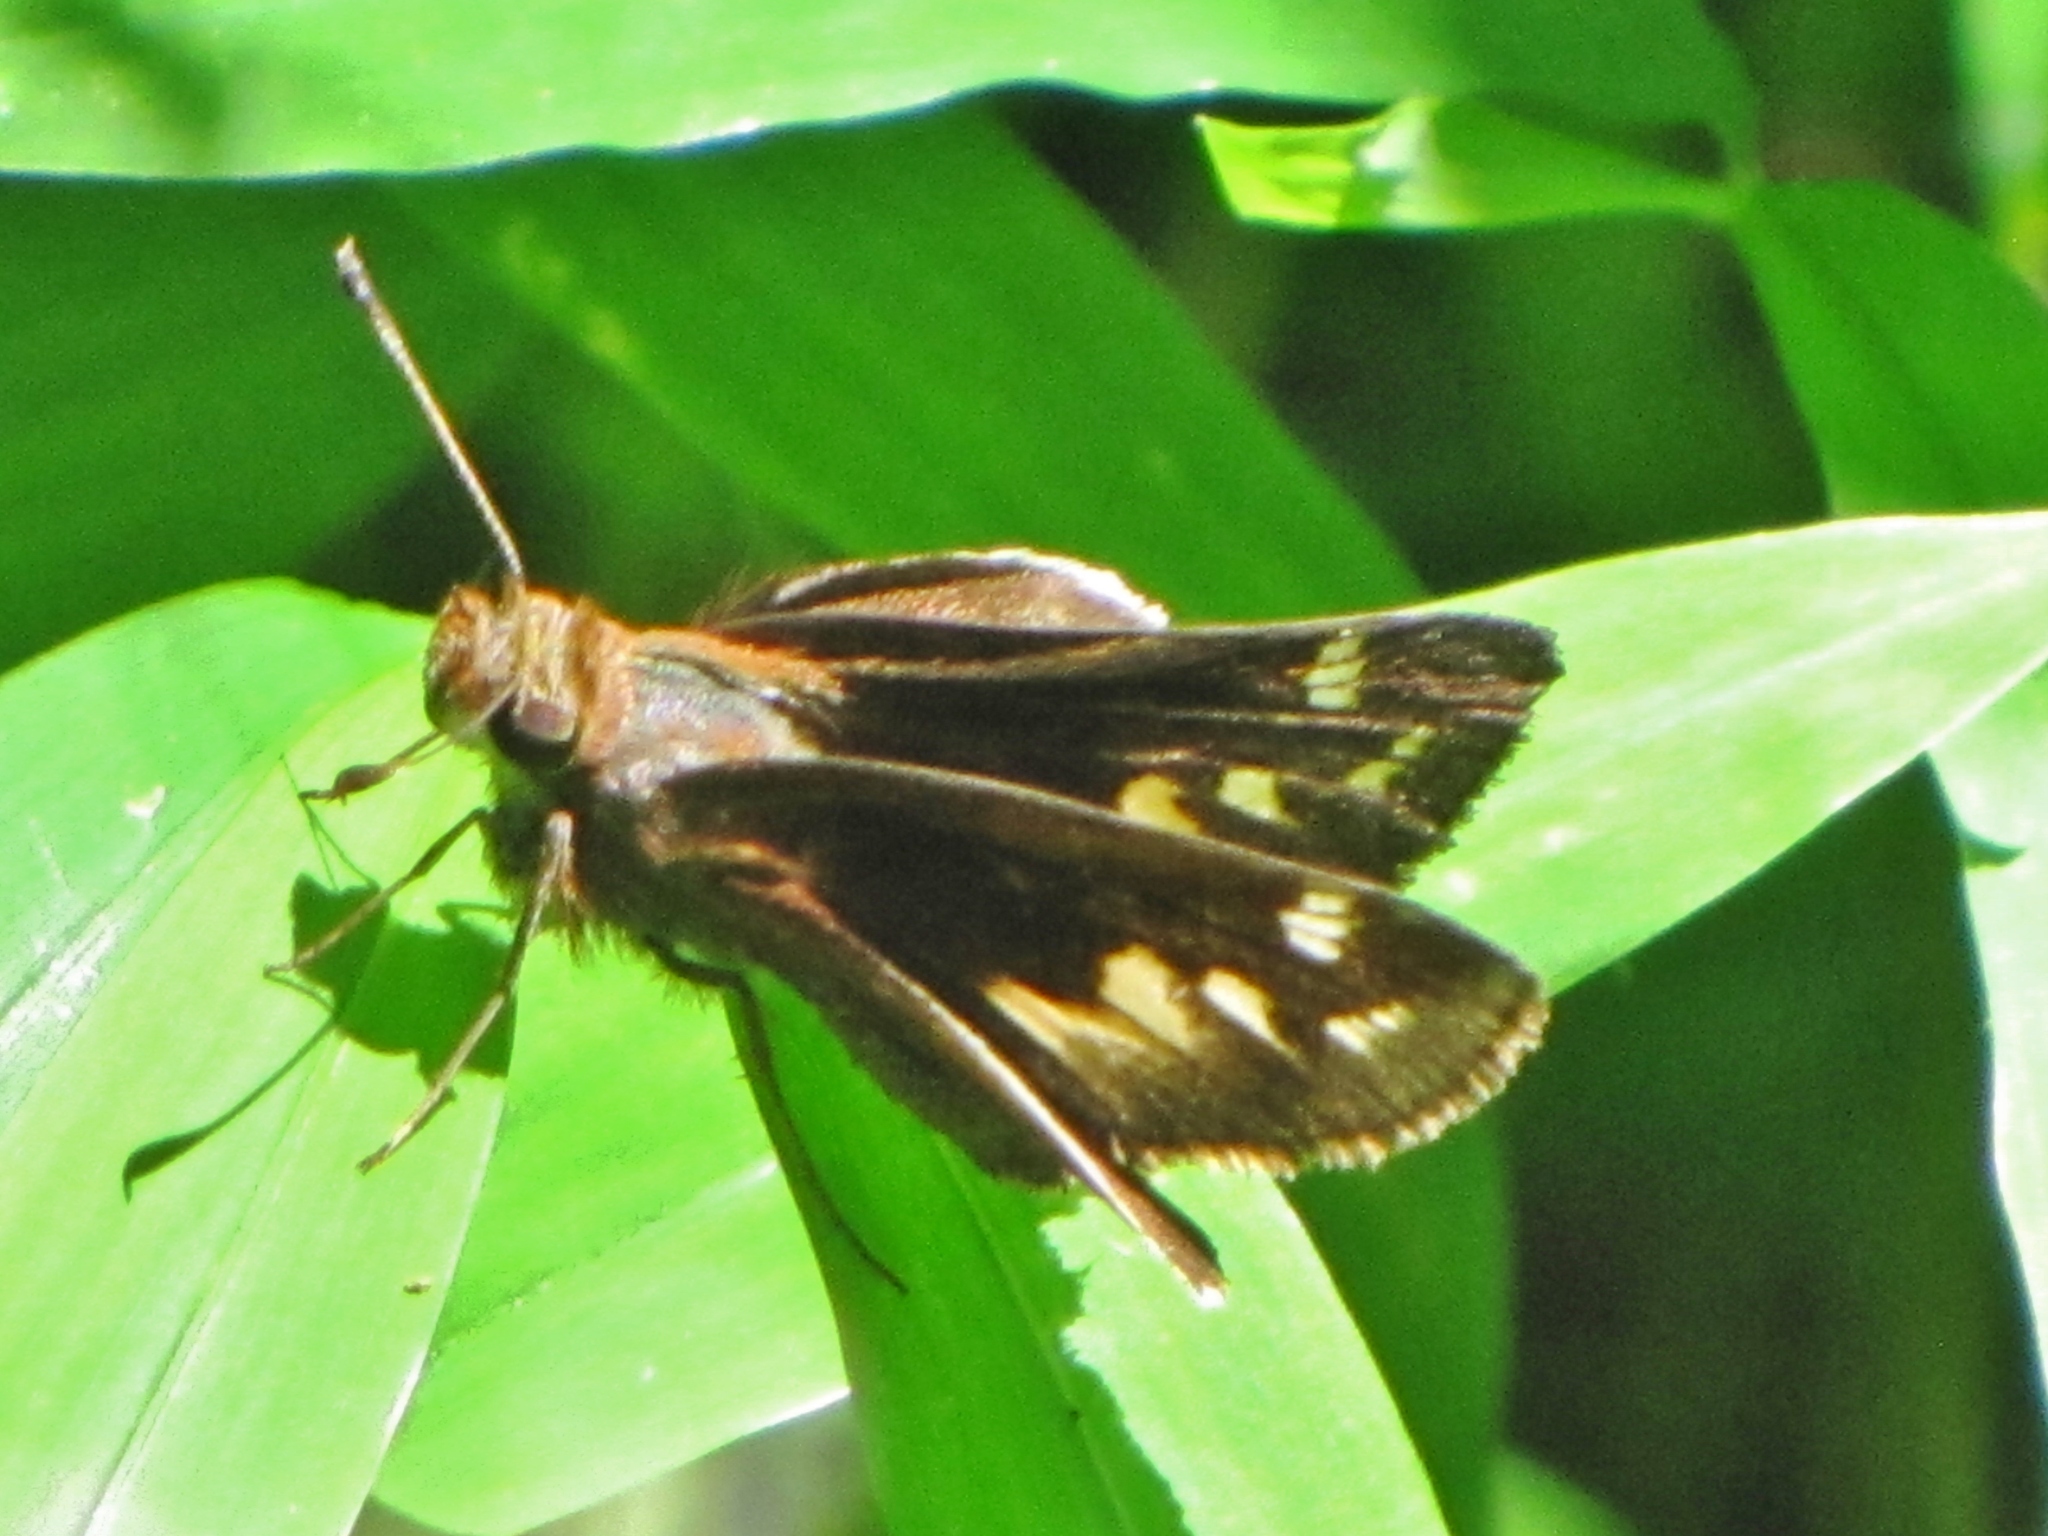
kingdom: Animalia
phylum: Arthropoda
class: Insecta
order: Lepidoptera
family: Hesperiidae
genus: Lon
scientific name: Lon zabulon
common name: Zabulon skipper
